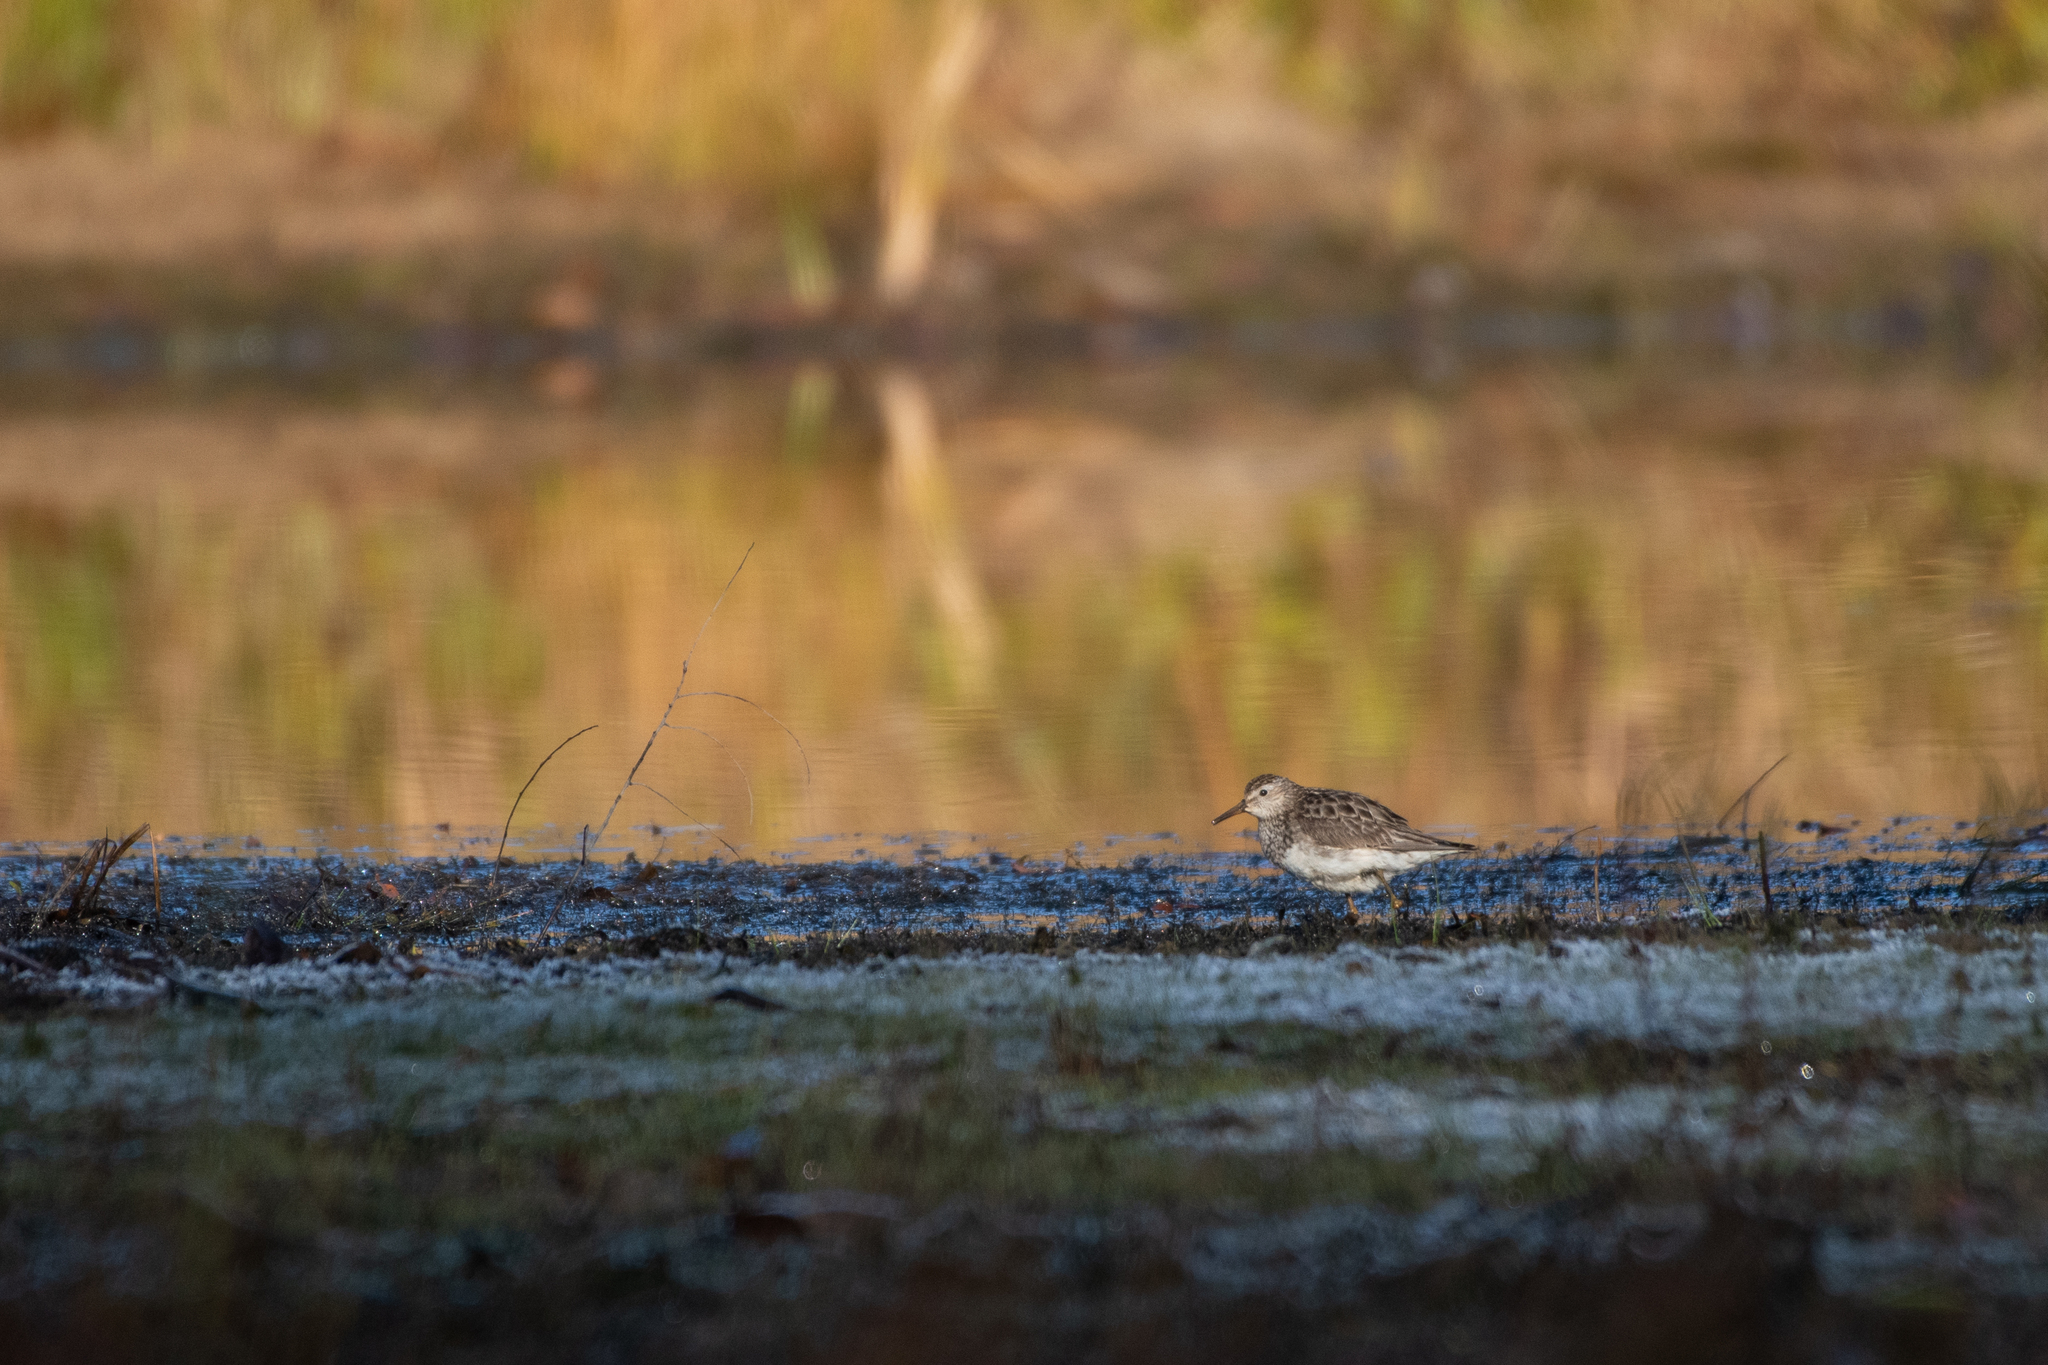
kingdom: Animalia
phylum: Chordata
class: Aves
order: Charadriiformes
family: Scolopacidae
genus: Calidris
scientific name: Calidris melanotos
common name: Pectoral sandpiper
